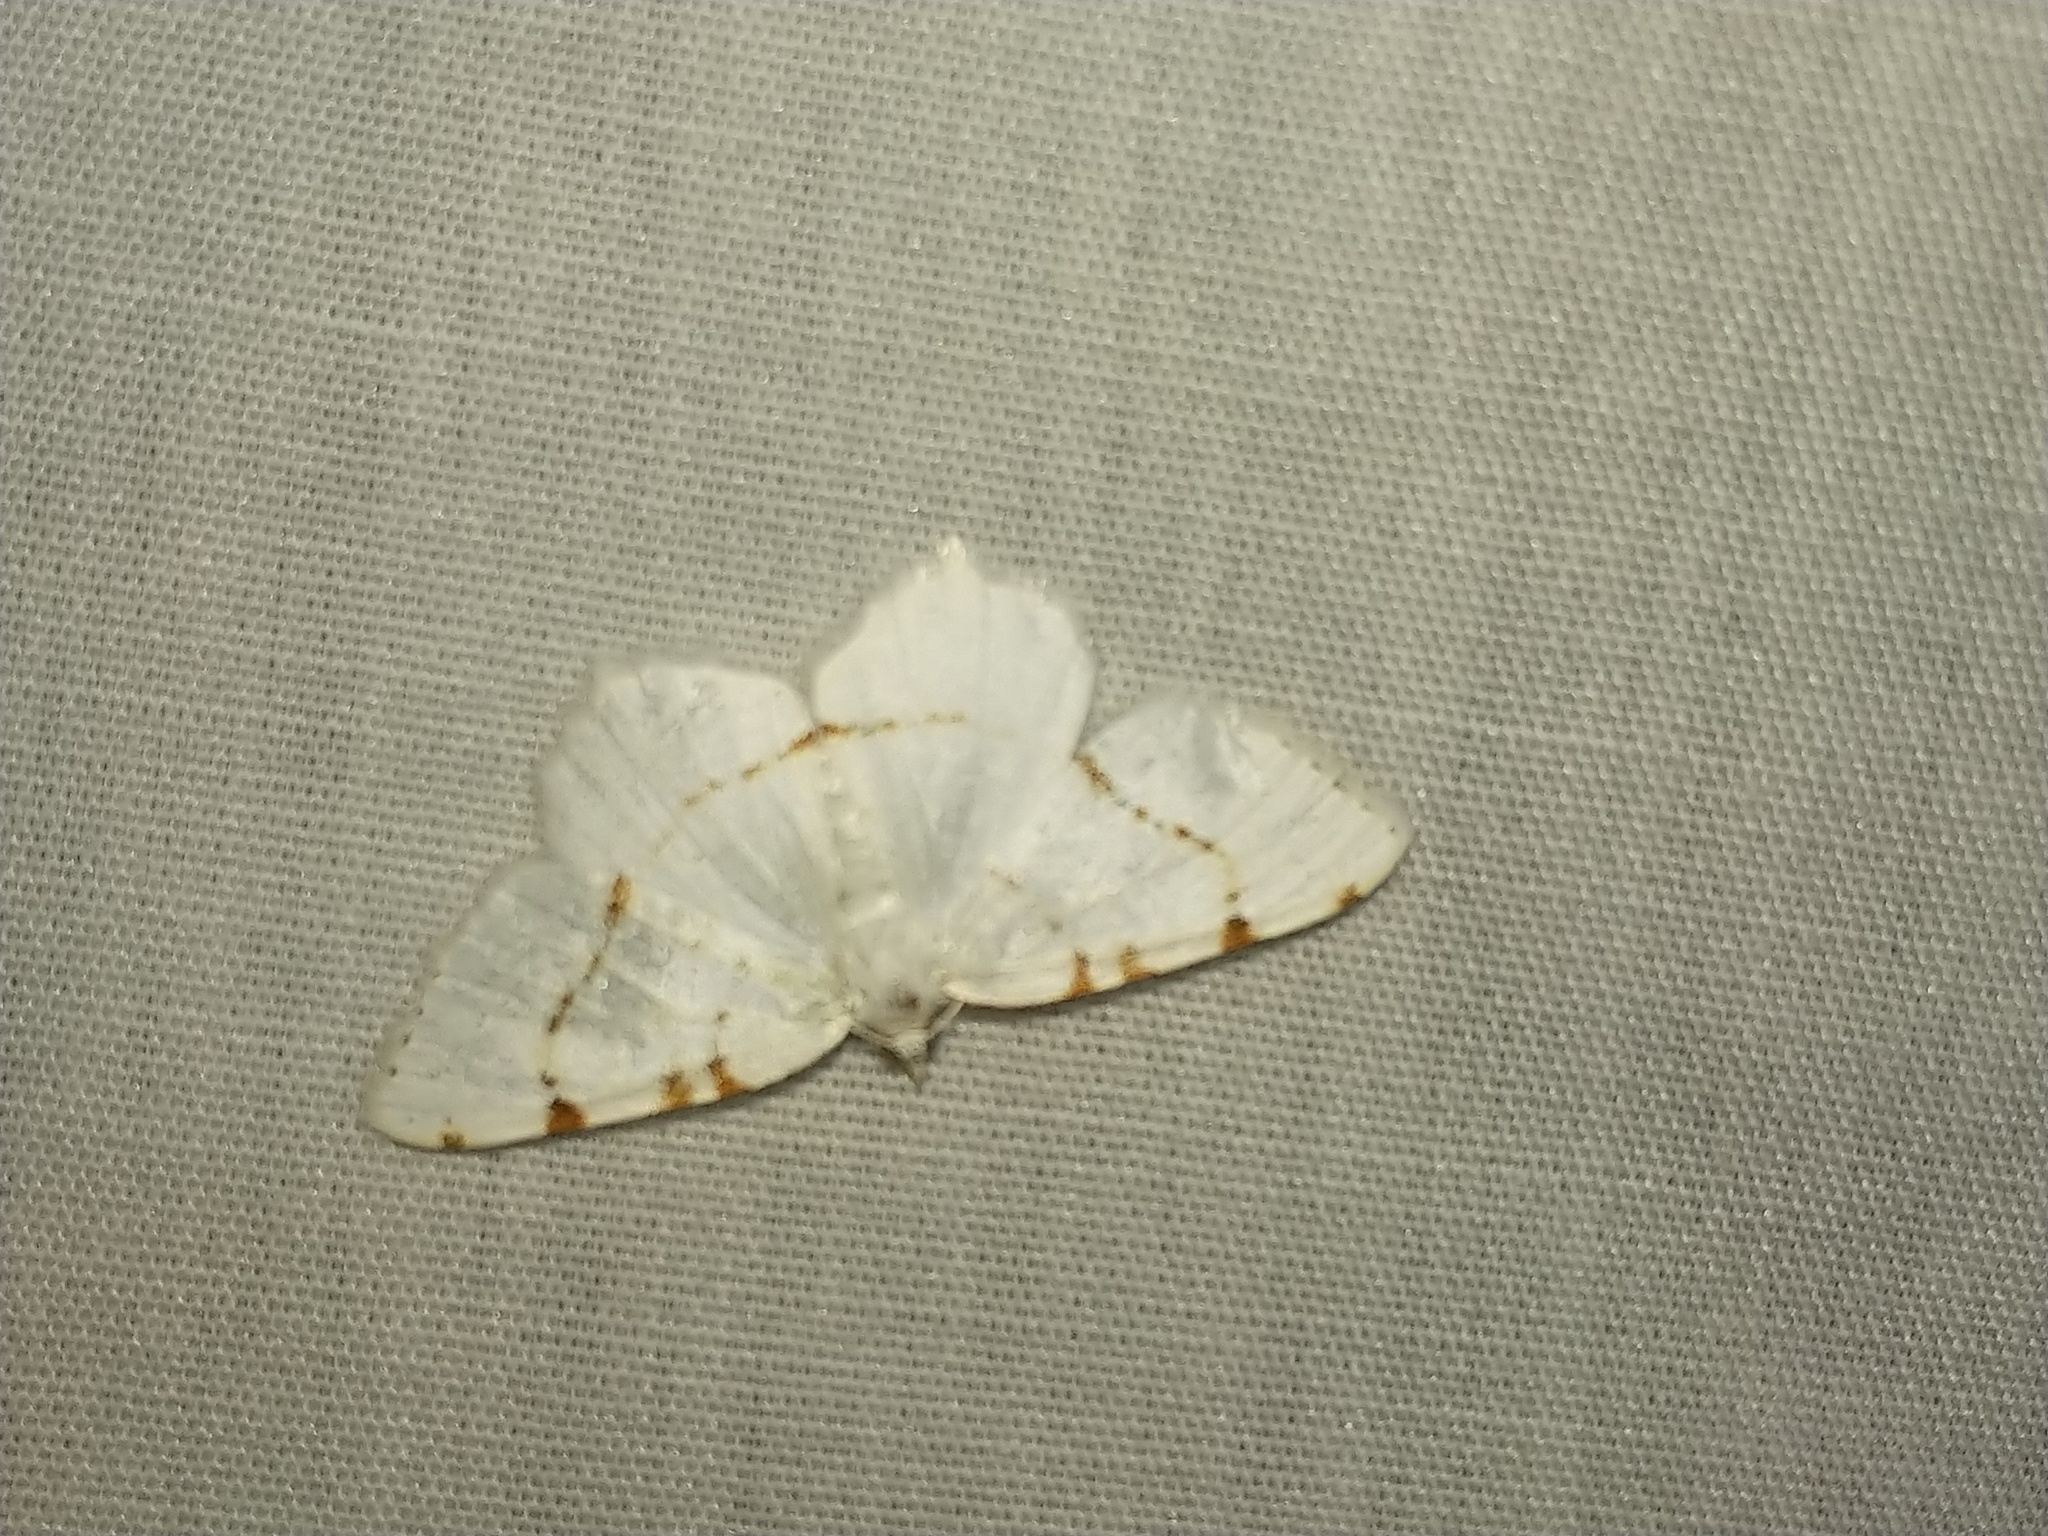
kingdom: Animalia
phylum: Arthropoda
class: Insecta
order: Lepidoptera
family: Geometridae
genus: Macaria
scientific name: Macaria pustularia
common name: Lesser maple spanworm moth
